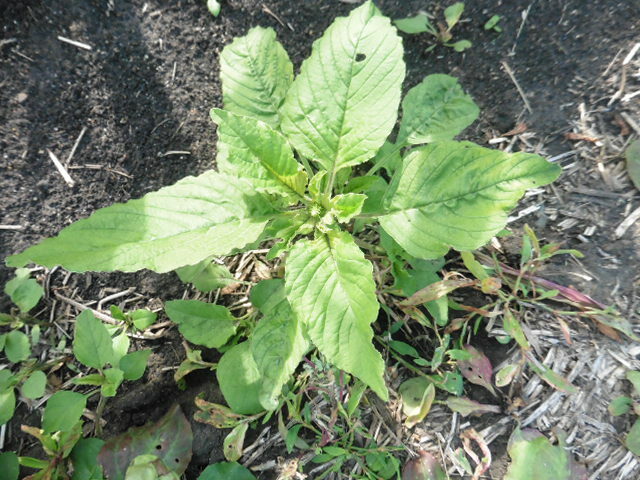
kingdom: Plantae
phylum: Tracheophyta
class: Magnoliopsida
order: Caryophyllales
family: Amaranthaceae
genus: Amaranthus
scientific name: Amaranthus retroflexus
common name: Redroot amaranth
